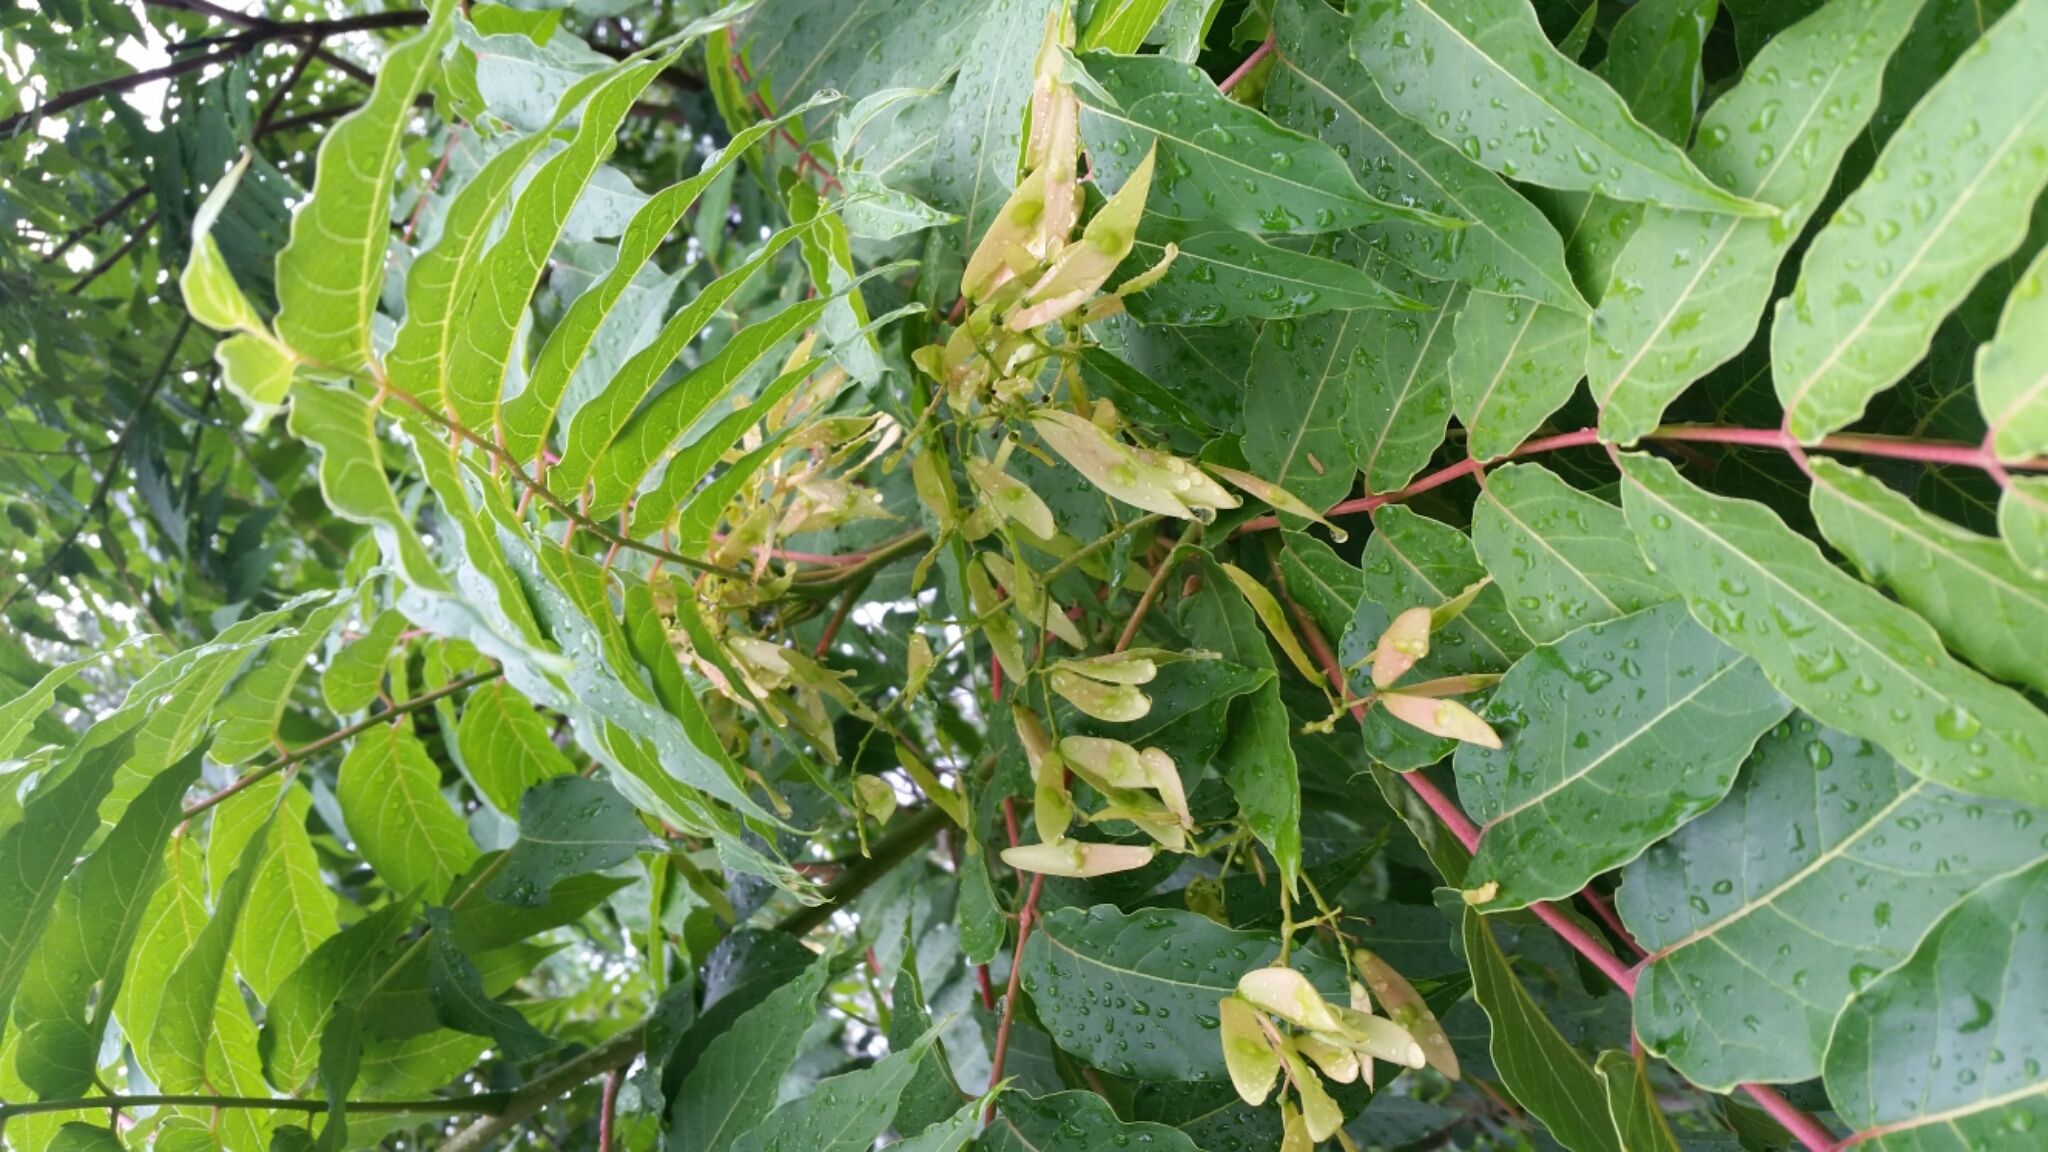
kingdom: Plantae
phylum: Tracheophyta
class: Magnoliopsida
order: Sapindales
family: Simaroubaceae
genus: Ailanthus
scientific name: Ailanthus altissima
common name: Tree-of-heaven
